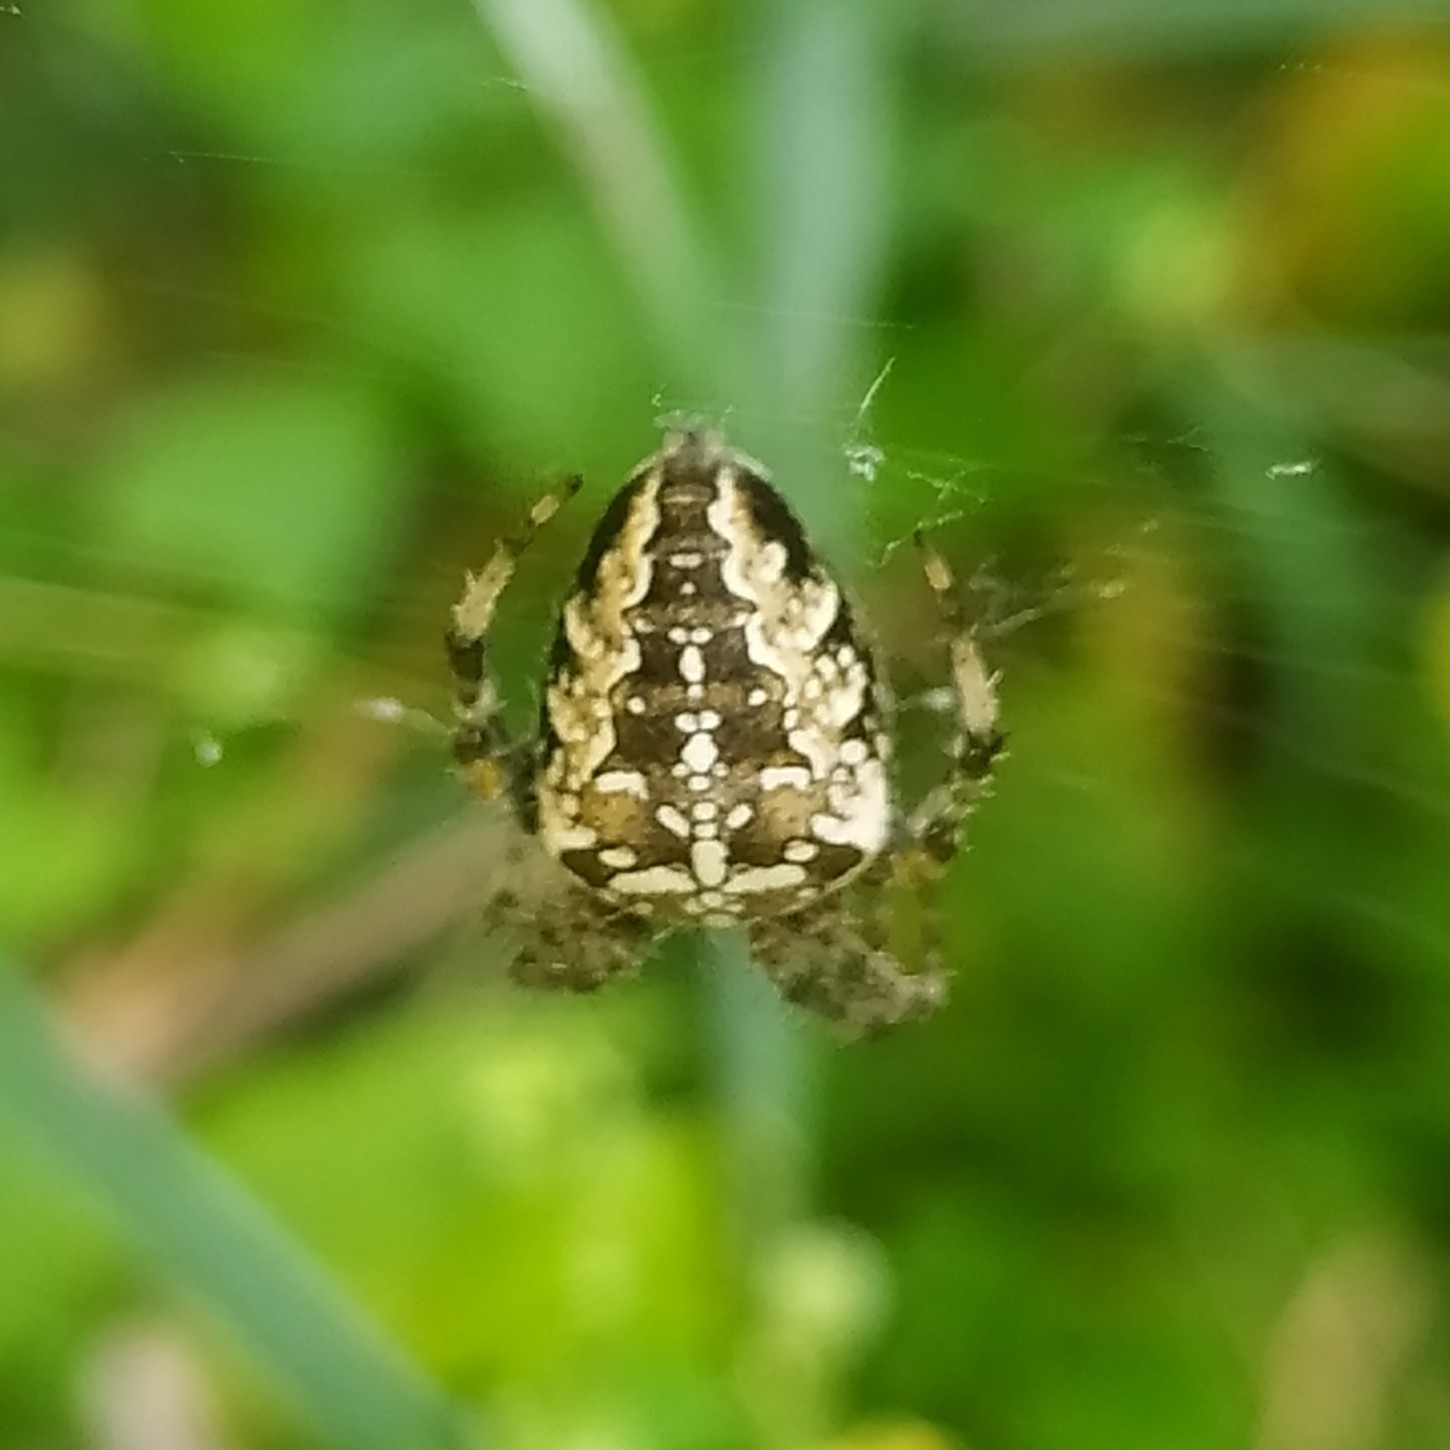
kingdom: Animalia
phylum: Arthropoda
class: Arachnida
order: Araneae
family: Araneidae
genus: Araneus
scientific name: Araneus diadematus
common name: Cross orbweaver
